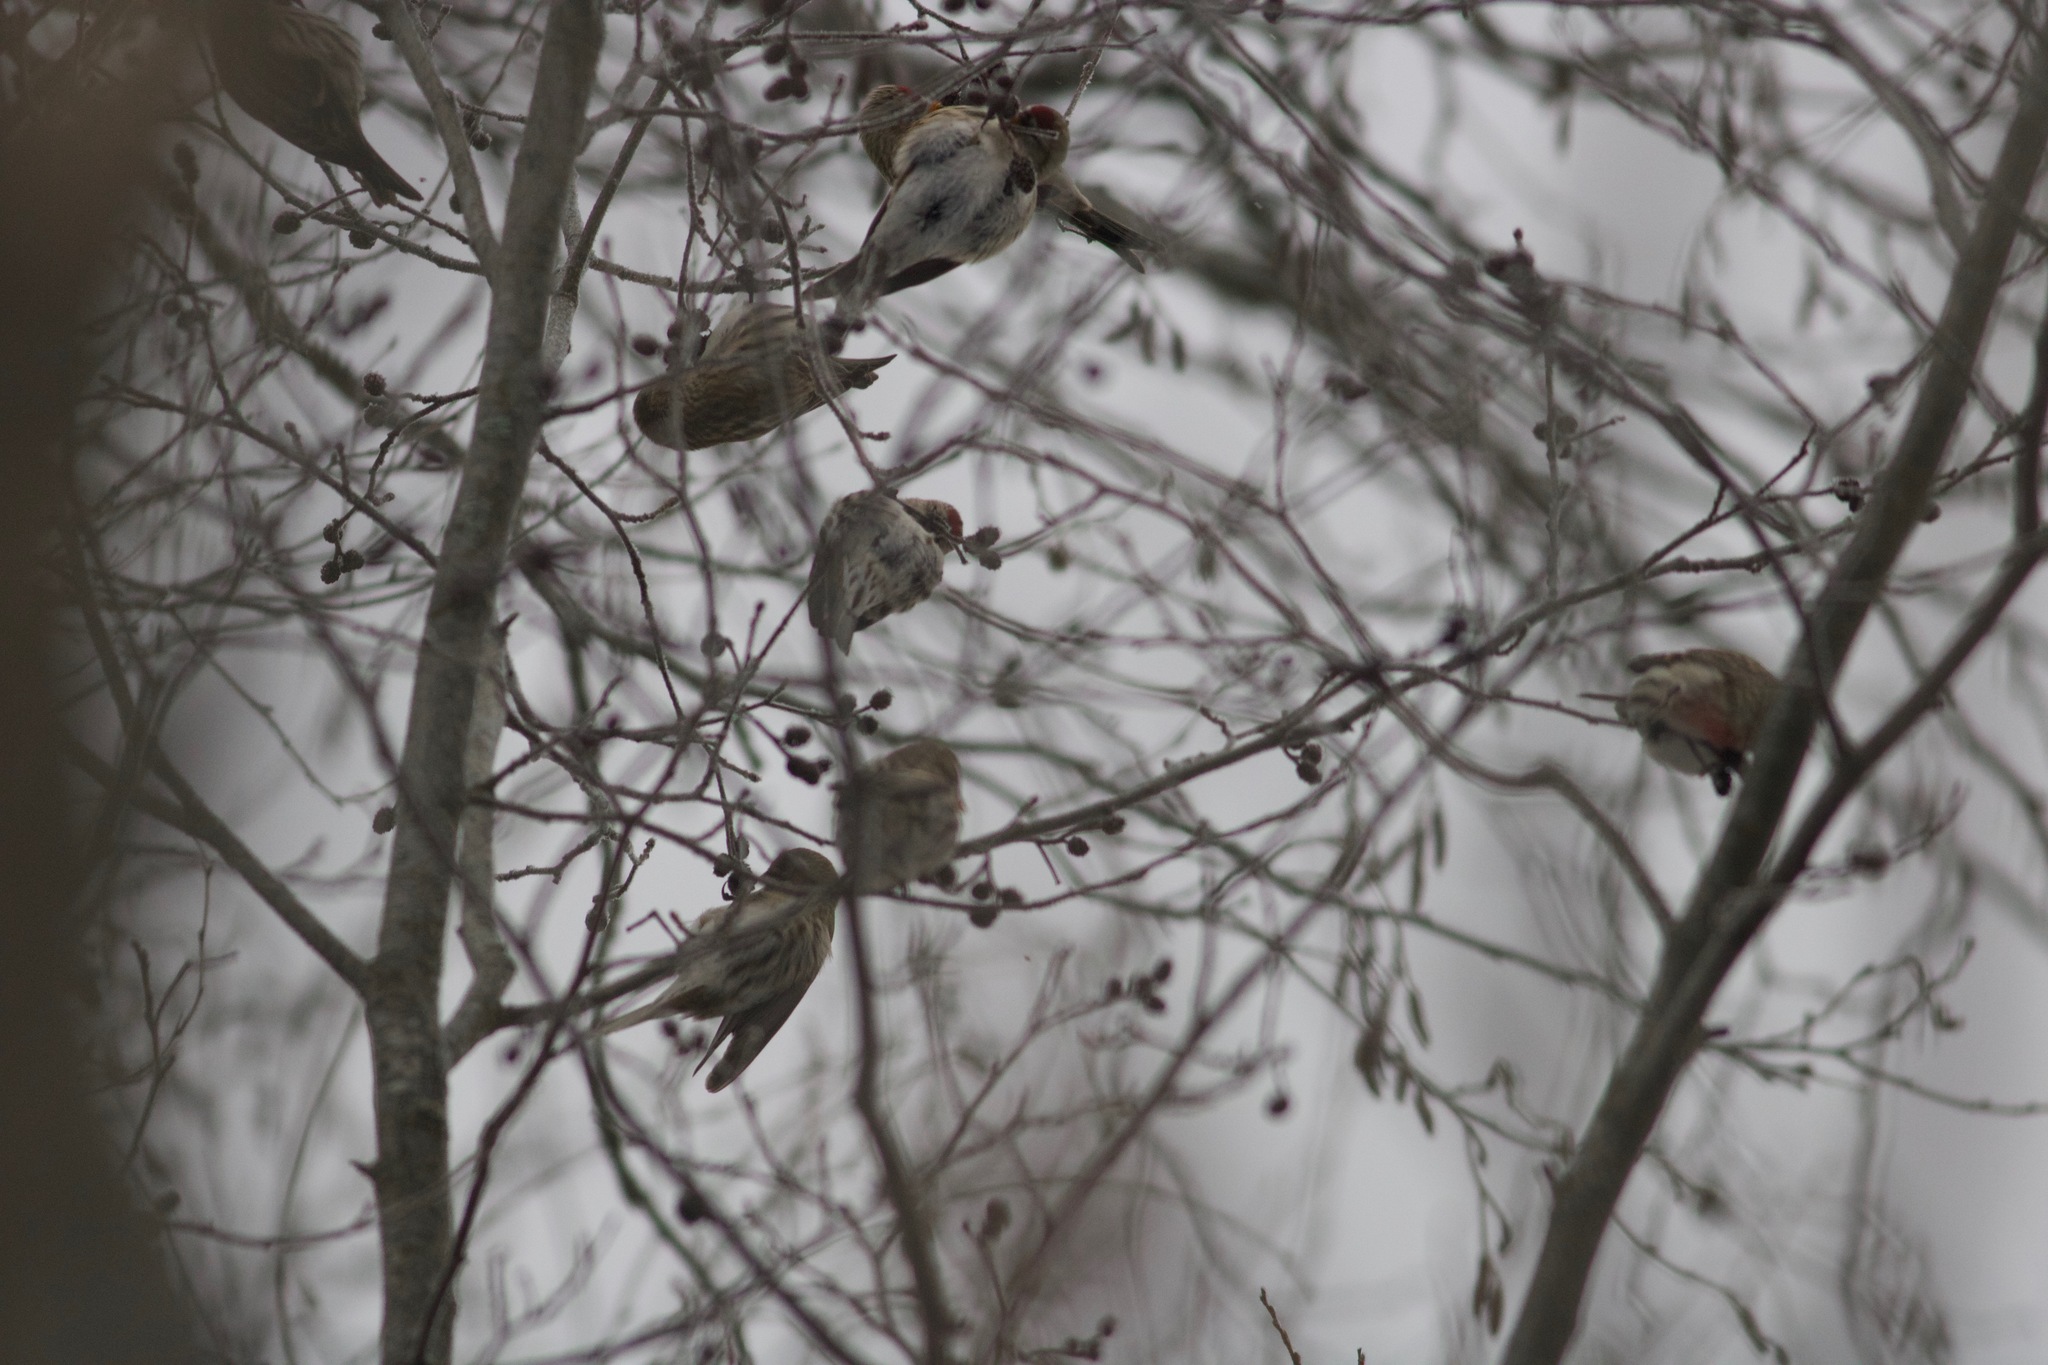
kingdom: Animalia
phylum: Chordata
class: Aves
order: Passeriformes
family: Fringillidae
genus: Acanthis
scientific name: Acanthis flammea
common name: Common redpoll
